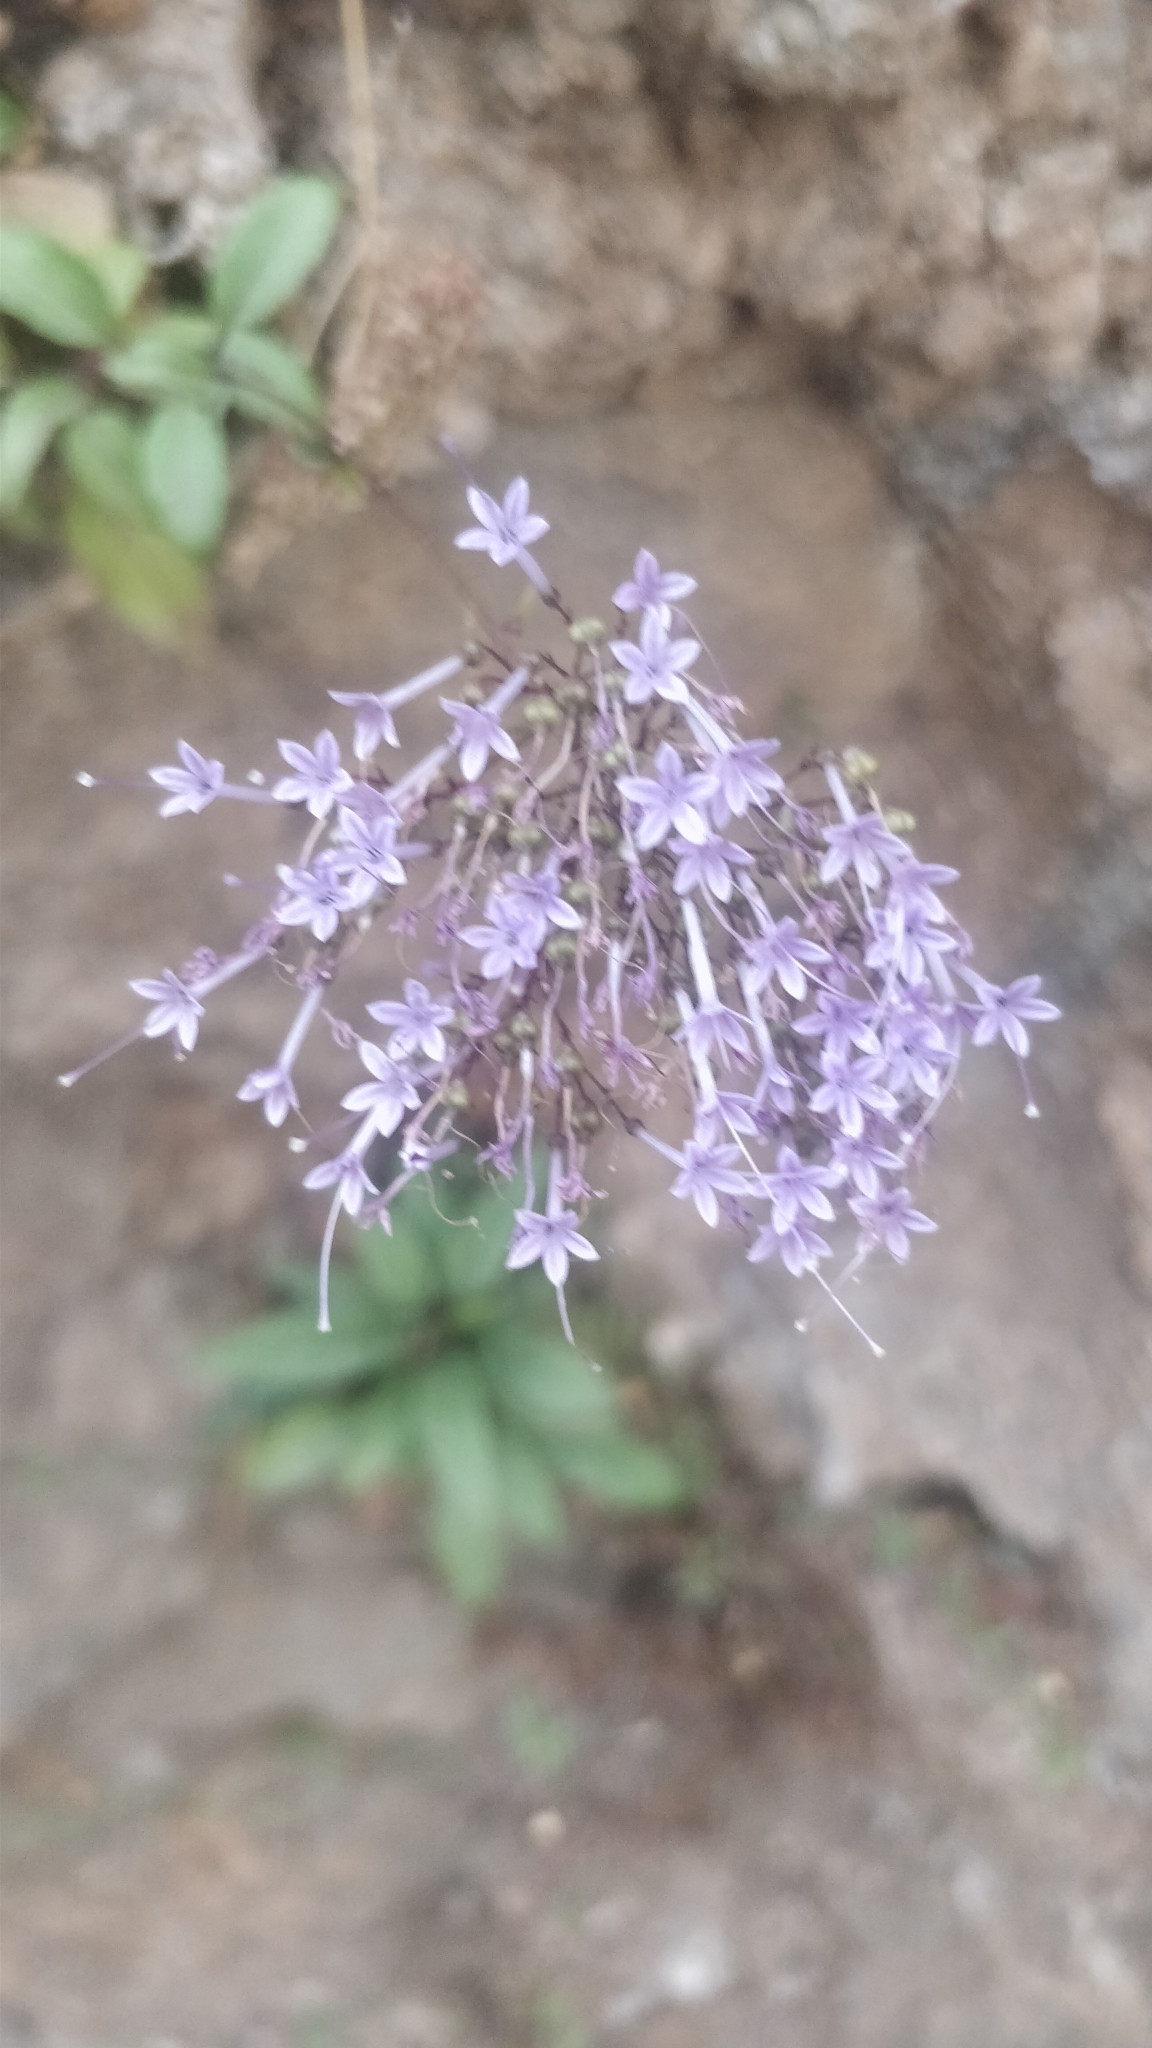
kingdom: Plantae
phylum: Tracheophyta
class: Magnoliopsida
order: Asterales
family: Campanulaceae
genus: Trachelium
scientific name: Trachelium caeruleum
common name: Throatwort
